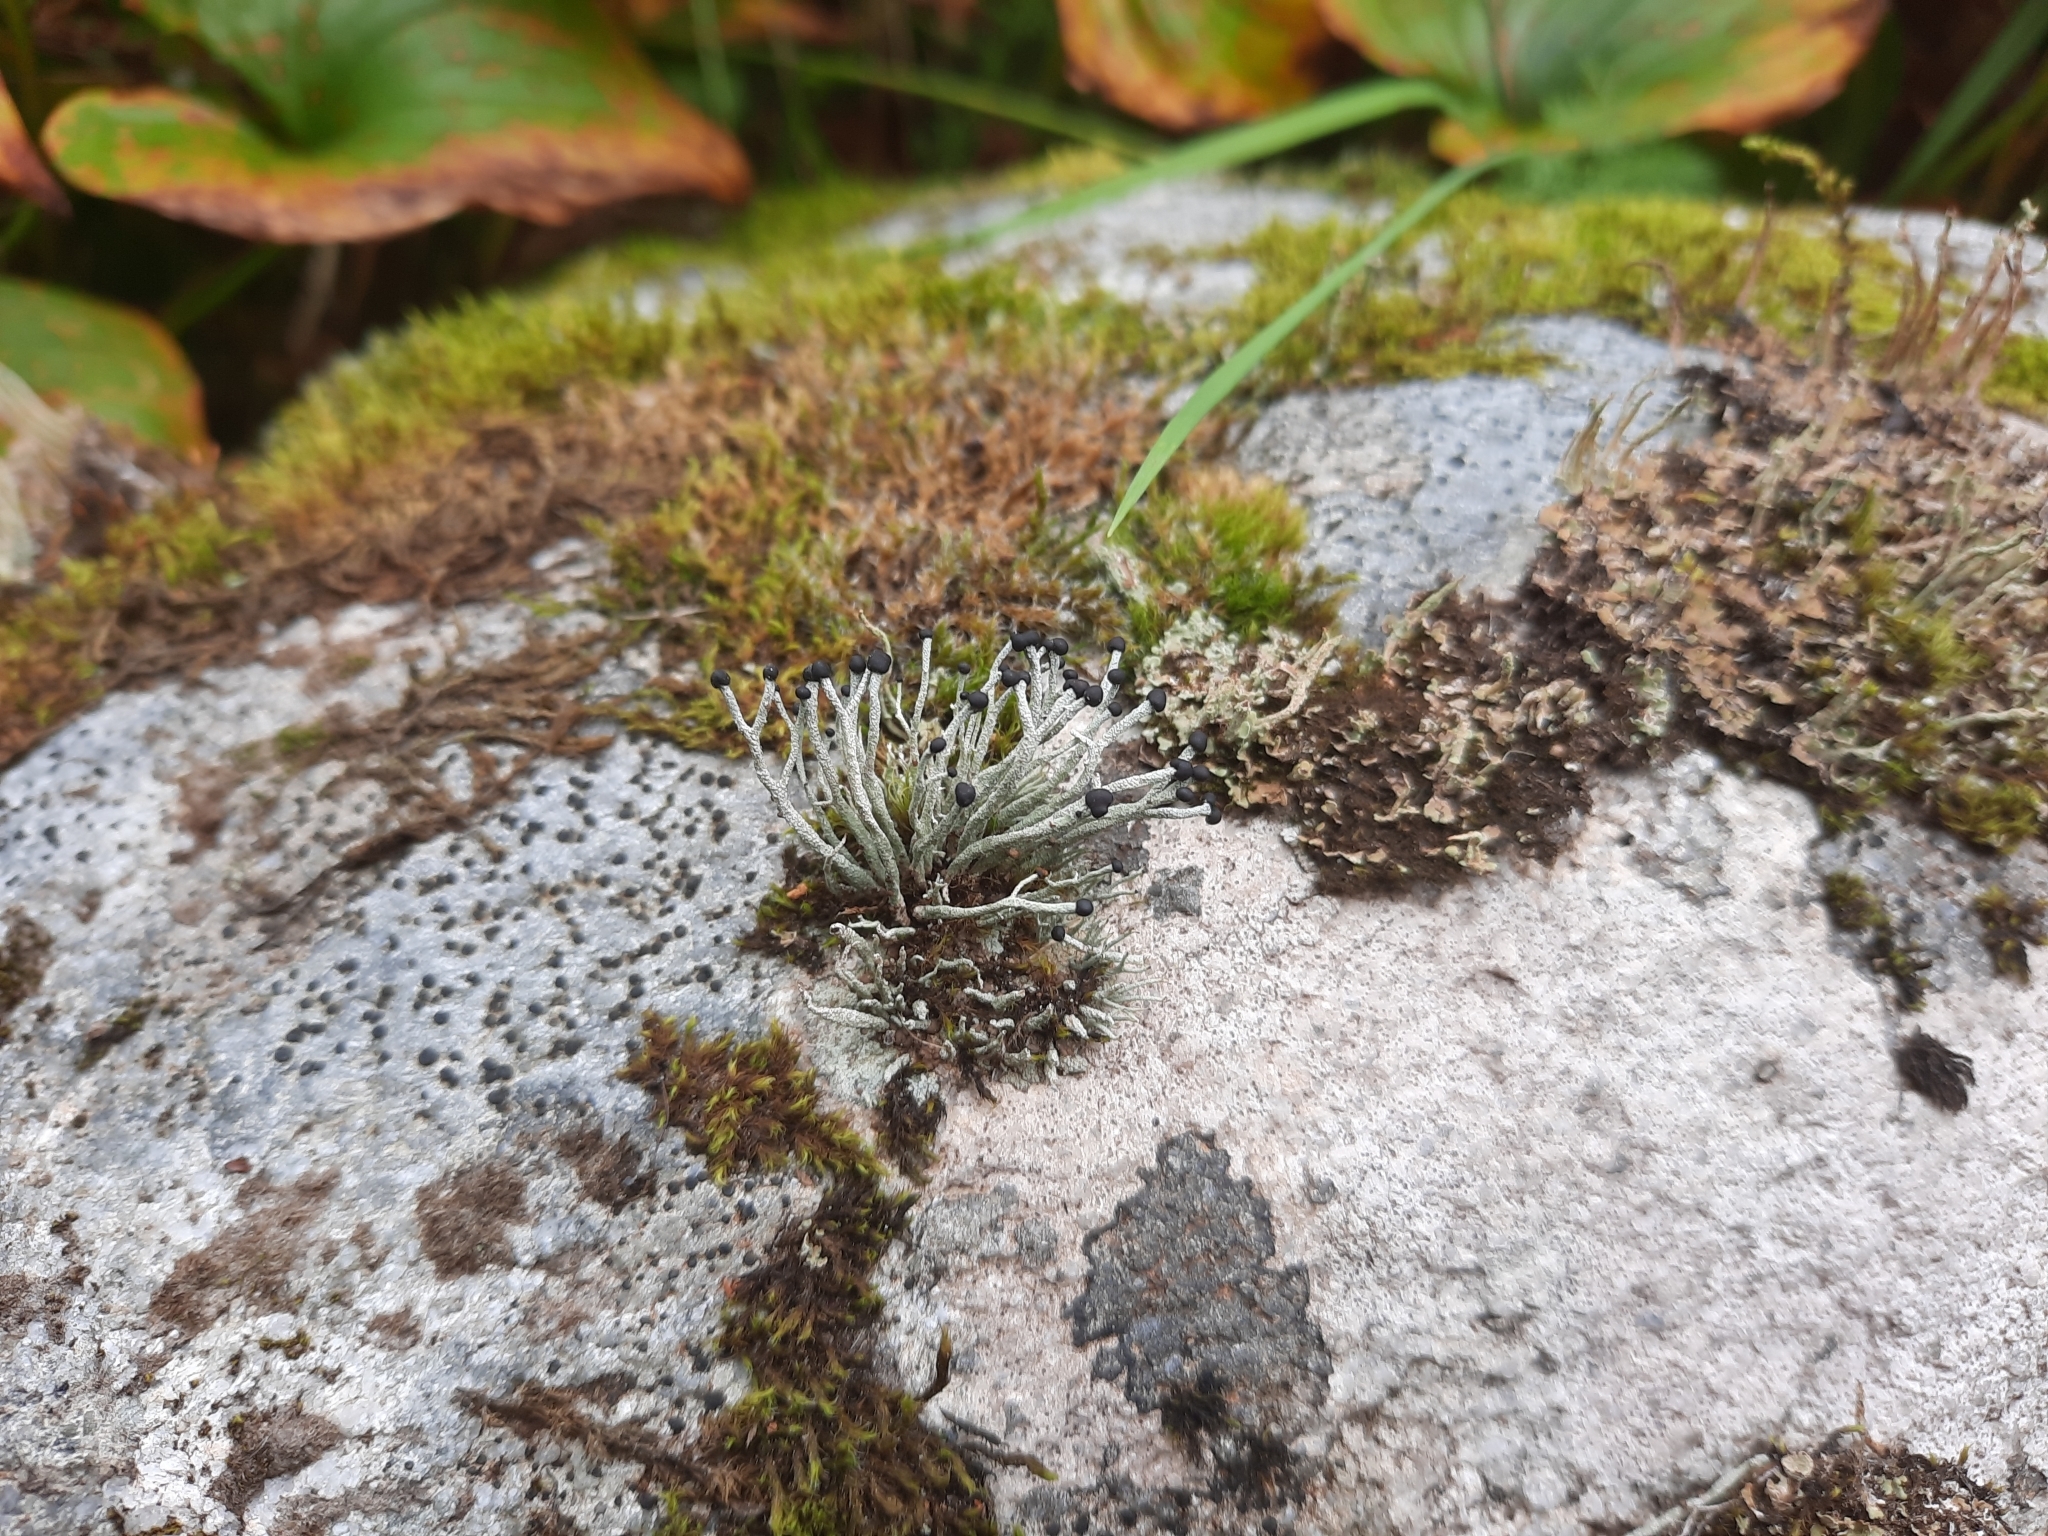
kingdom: Fungi
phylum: Ascomycota
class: Lecanoromycetes
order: Lecanorales
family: Cladoniaceae
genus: Pilophorus
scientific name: Pilophorus acicularis
